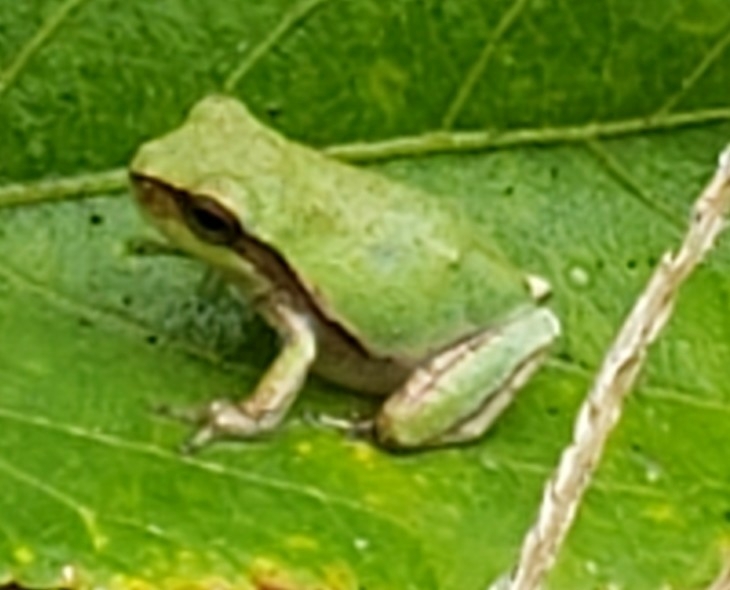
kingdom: Animalia
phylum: Chordata
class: Amphibia
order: Anura
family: Hylidae
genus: Hyla
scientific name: Hyla femoralis
